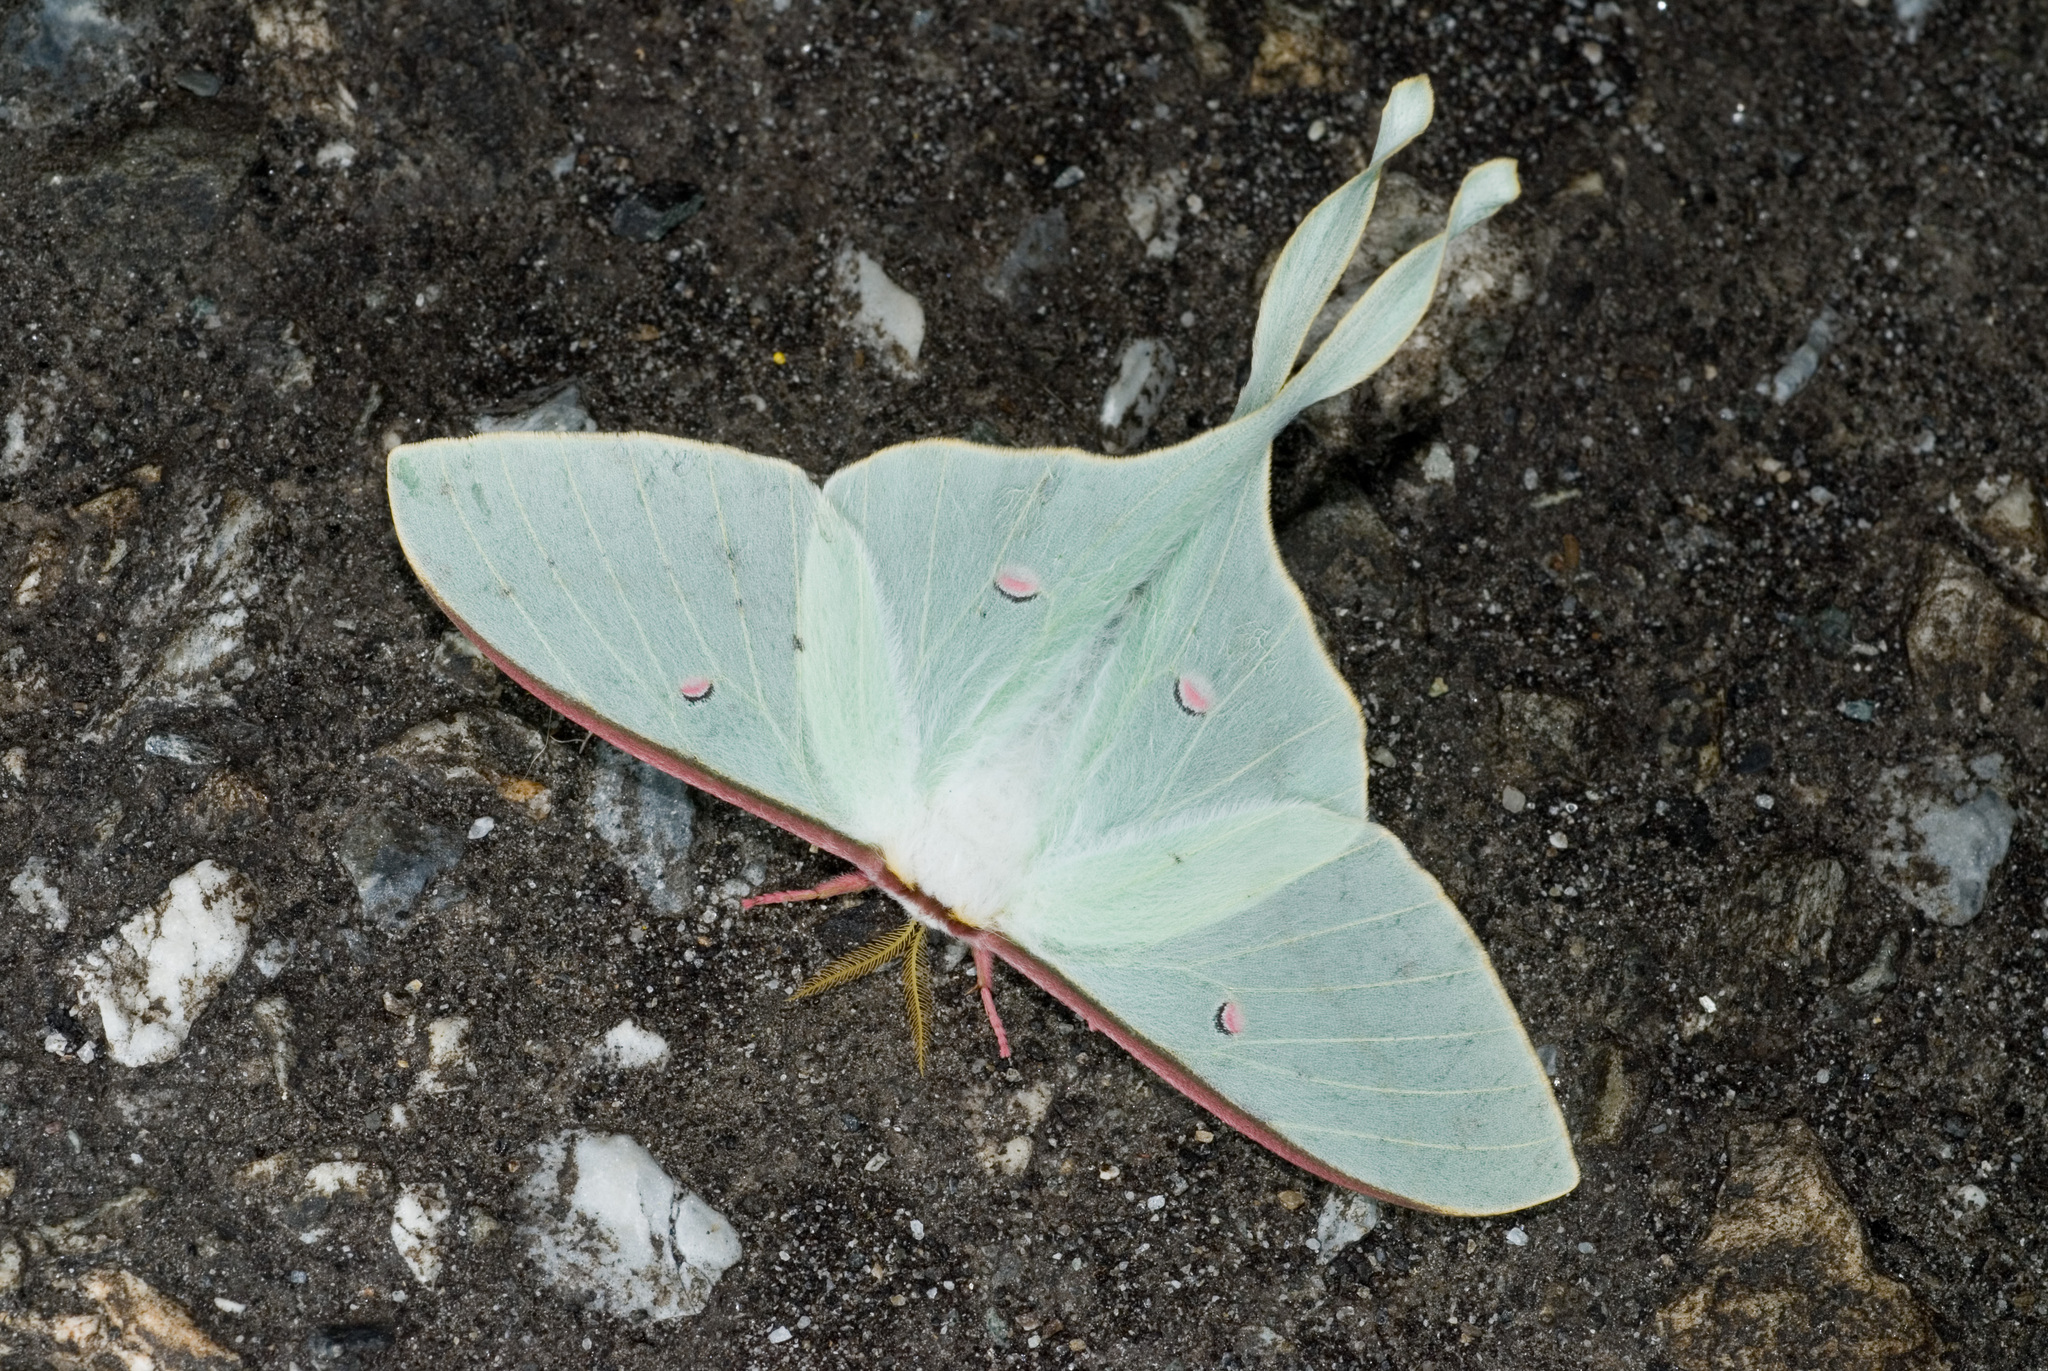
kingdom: Animalia
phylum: Arthropoda
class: Insecta
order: Lepidoptera
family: Saturniidae
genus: Actias
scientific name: Actias neidhoeferi
